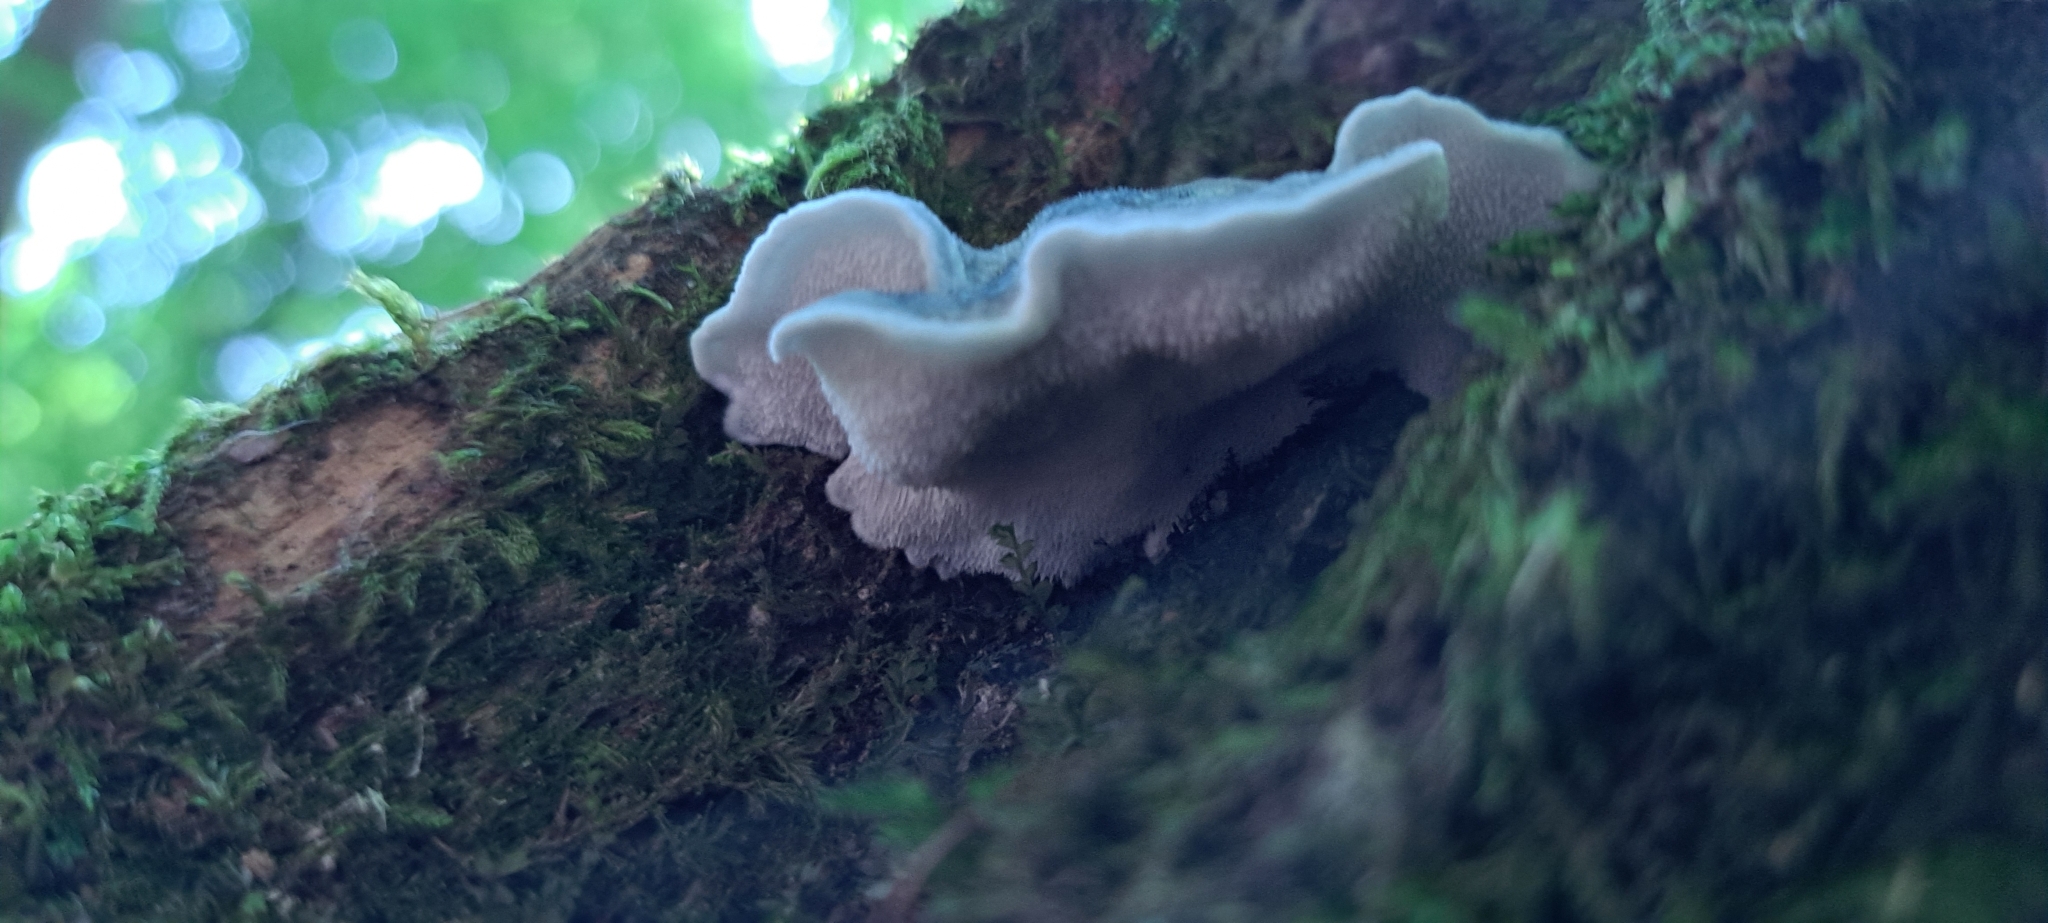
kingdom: Fungi
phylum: Basidiomycota
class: Agaricomycetes
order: Polyporales
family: Polyporaceae
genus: Cyanosporus
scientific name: Cyanosporus caesius
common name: Blue cheese polypore
